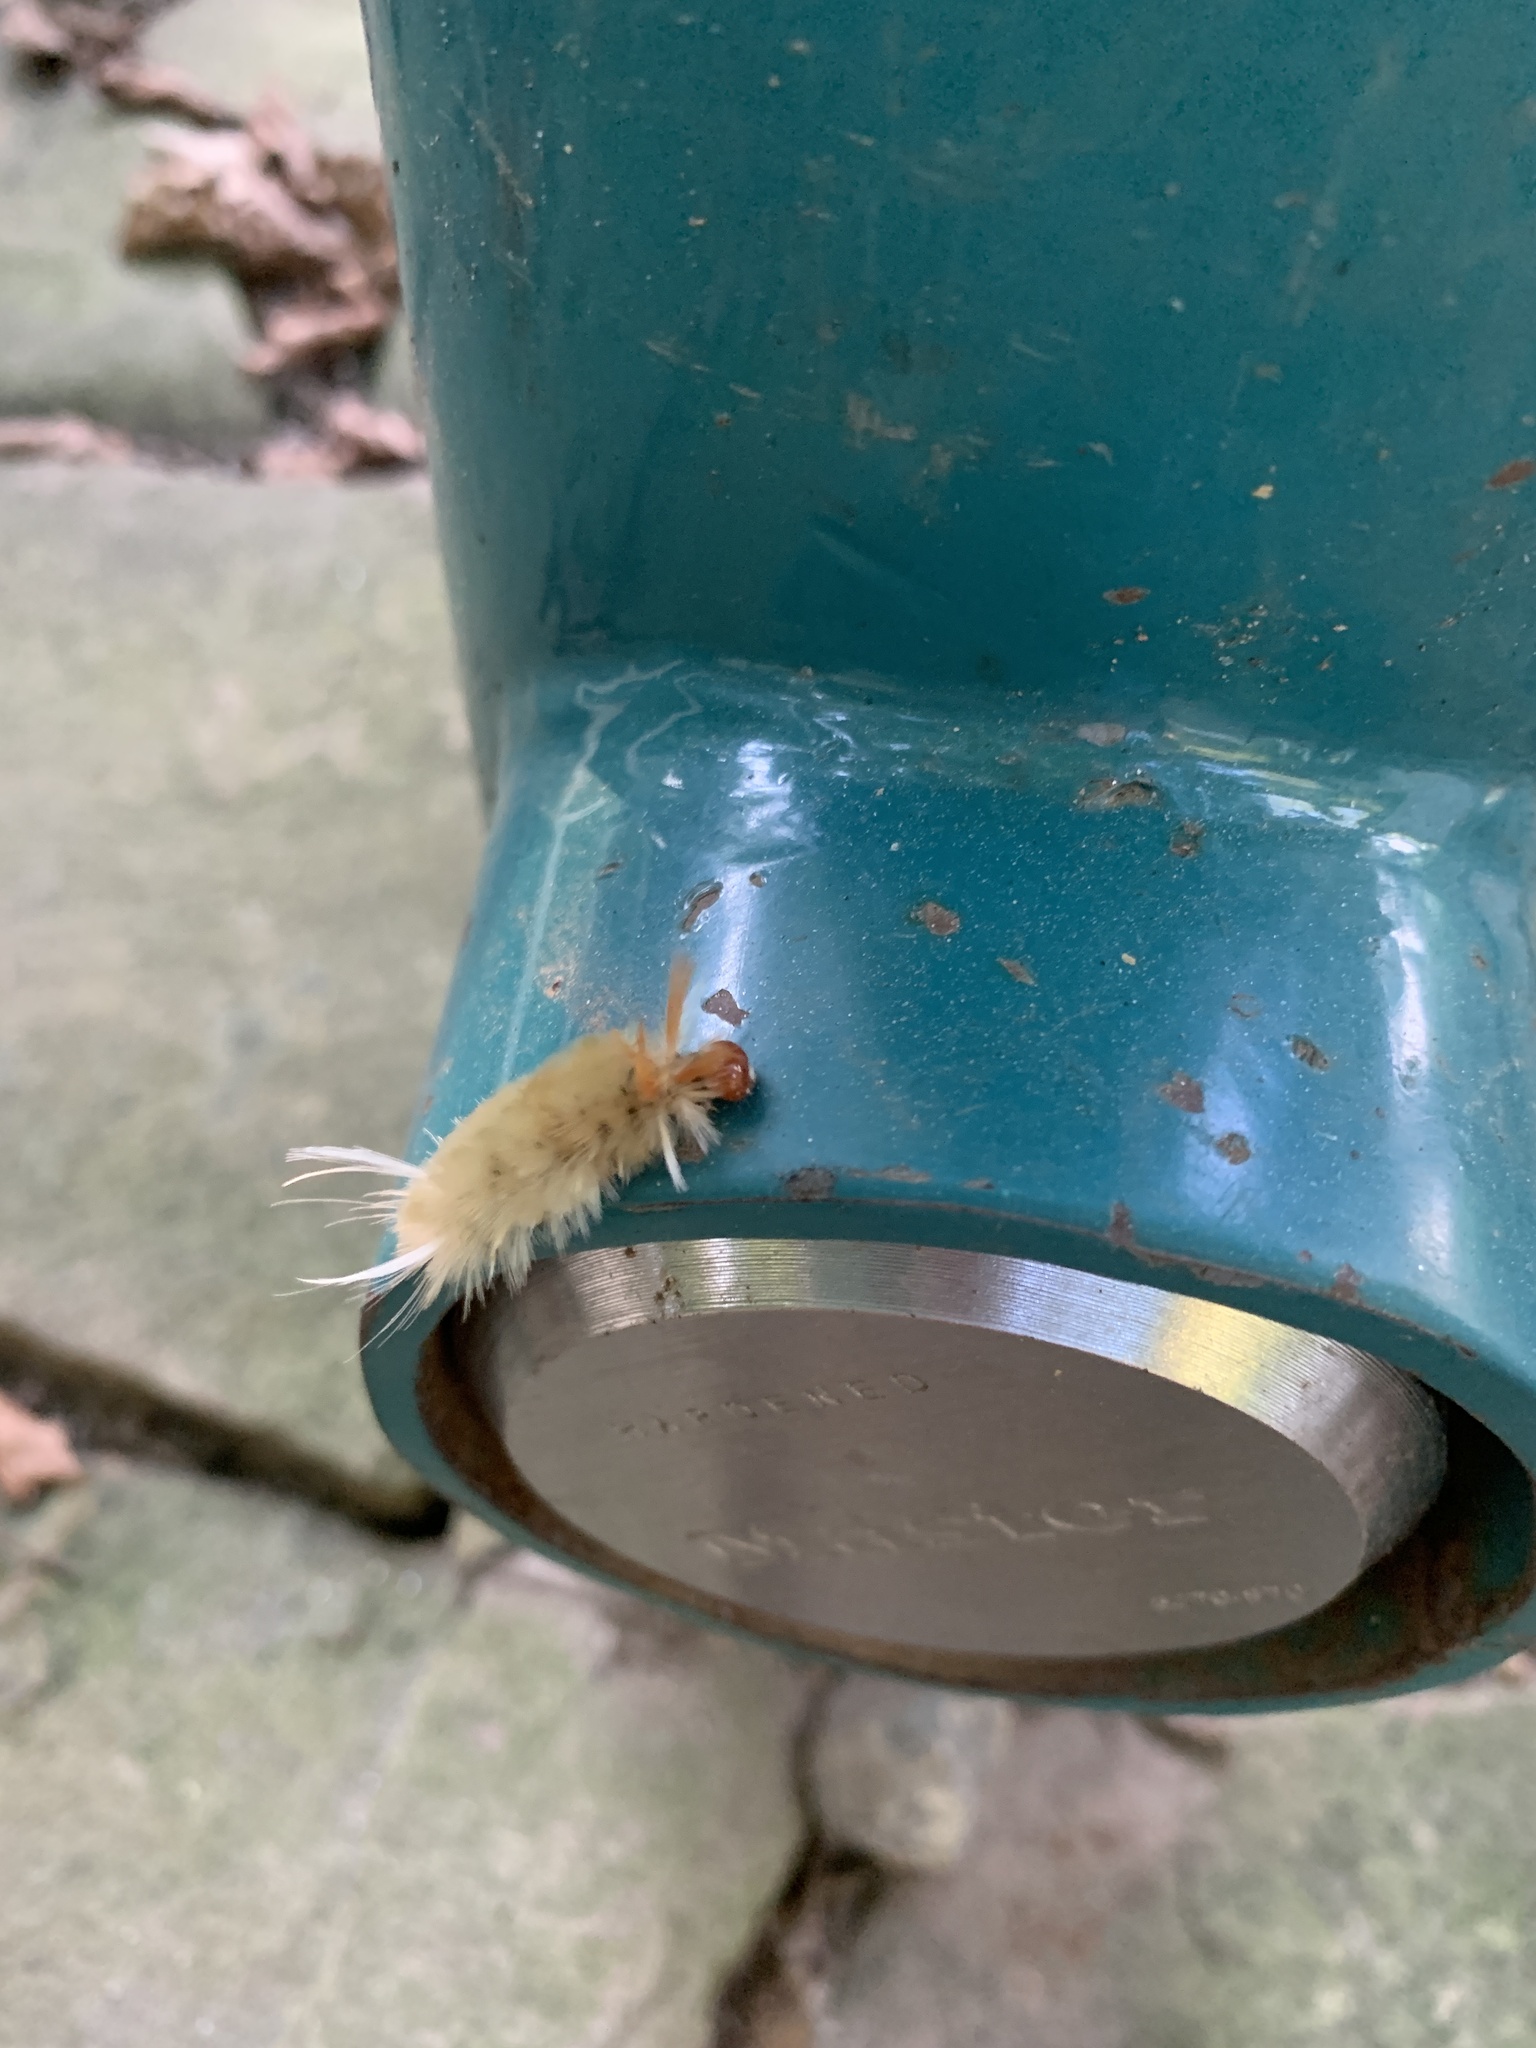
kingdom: Animalia
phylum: Arthropoda
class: Insecta
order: Lepidoptera
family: Erebidae
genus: Halysidota
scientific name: Halysidota harrisii
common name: Sycamore tussock moth
